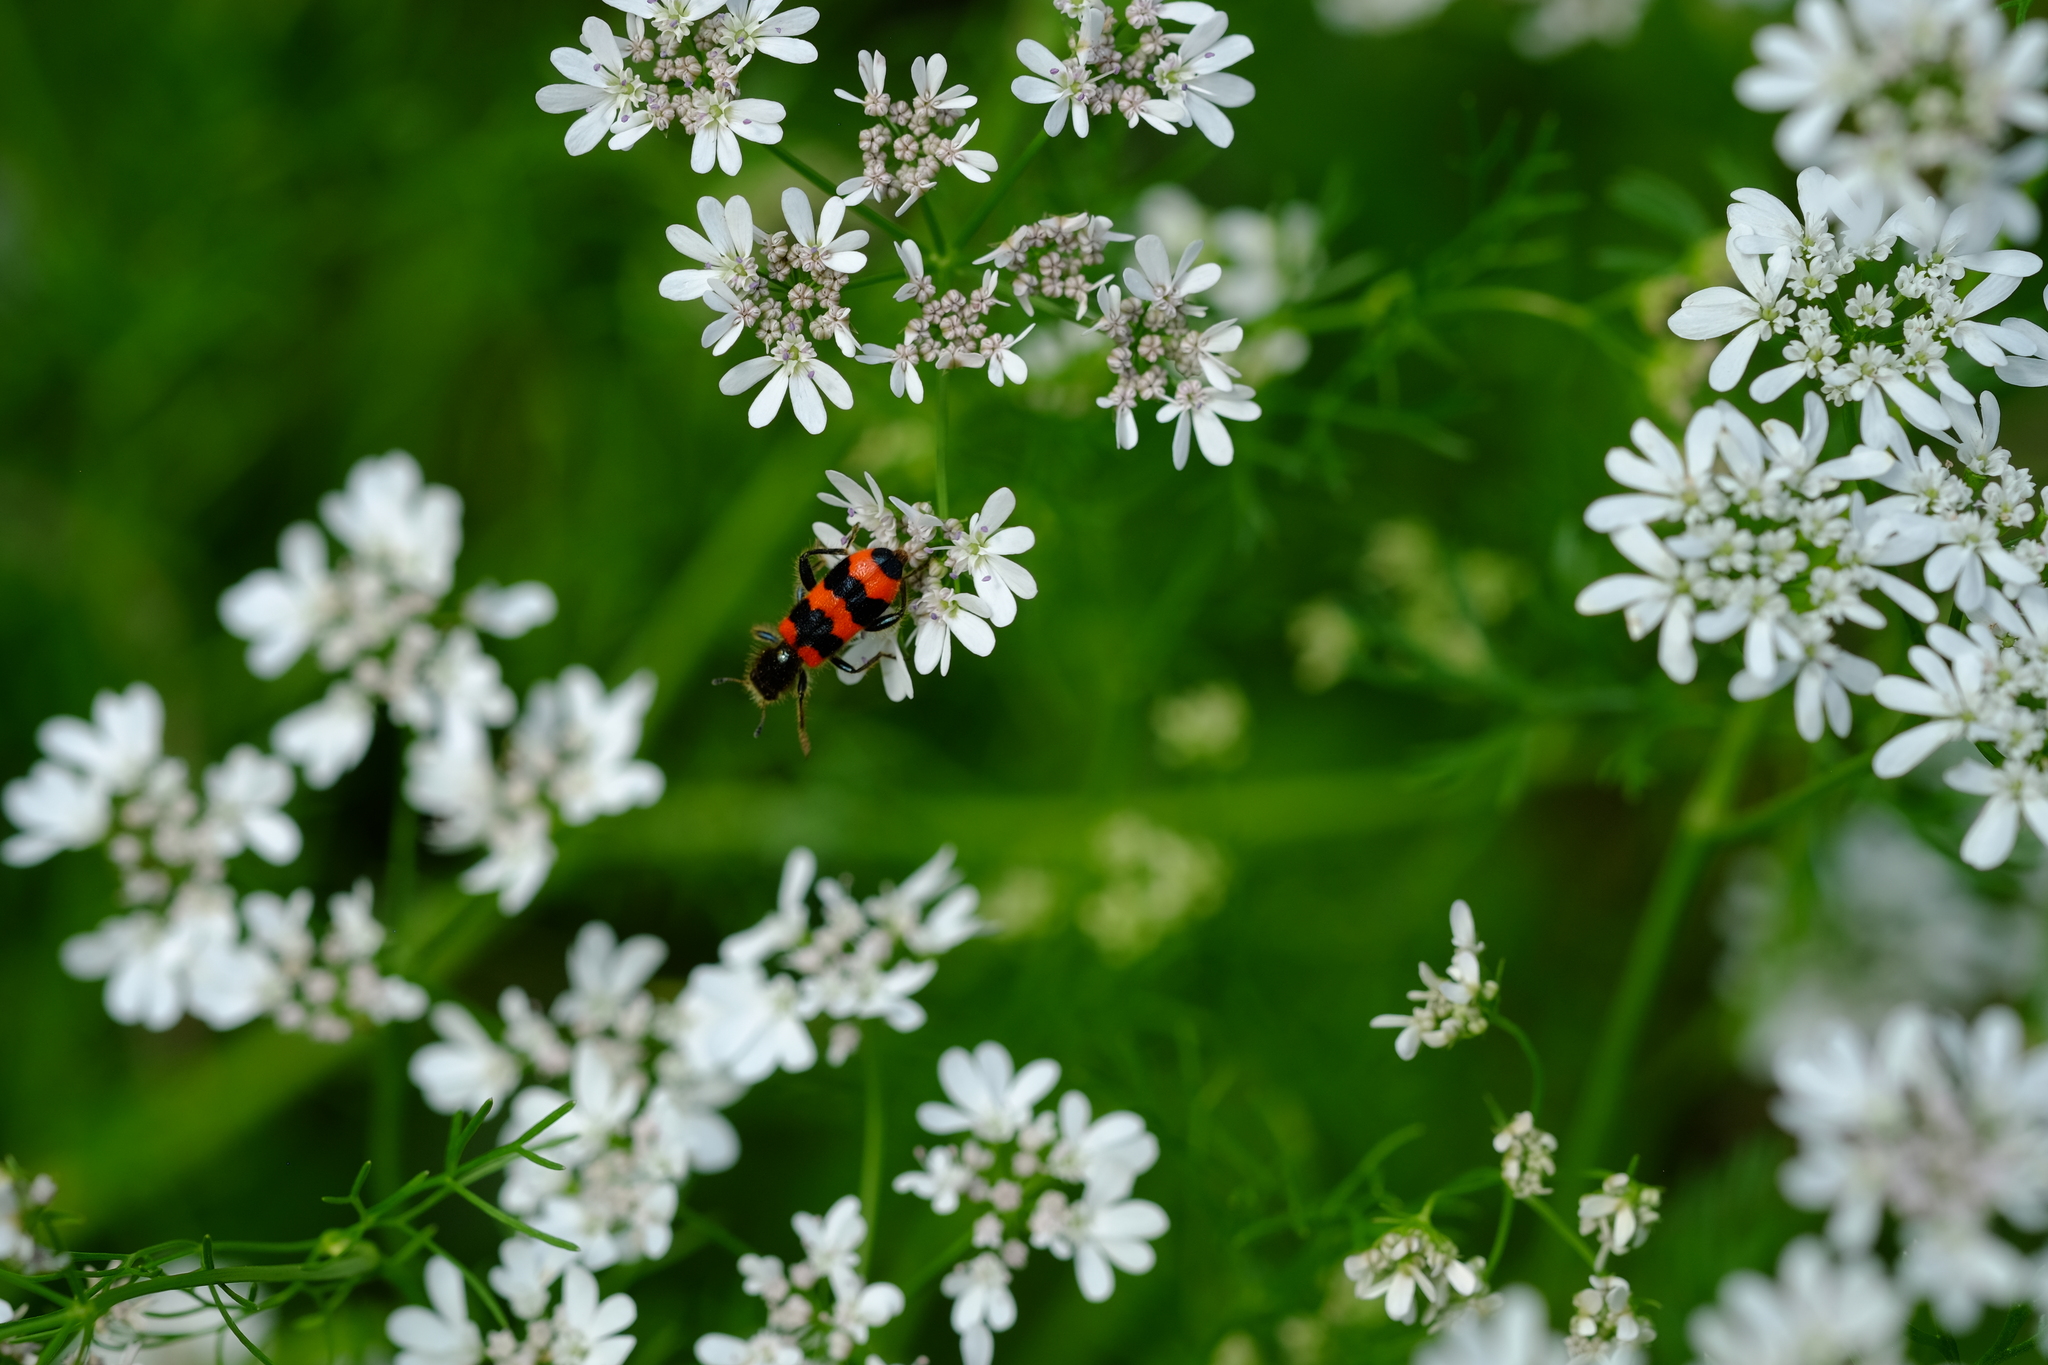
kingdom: Animalia
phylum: Arthropoda
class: Insecta
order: Coleoptera
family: Cleridae
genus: Trichodes
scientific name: Trichodes apiarius
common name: Bee-eating beetle
